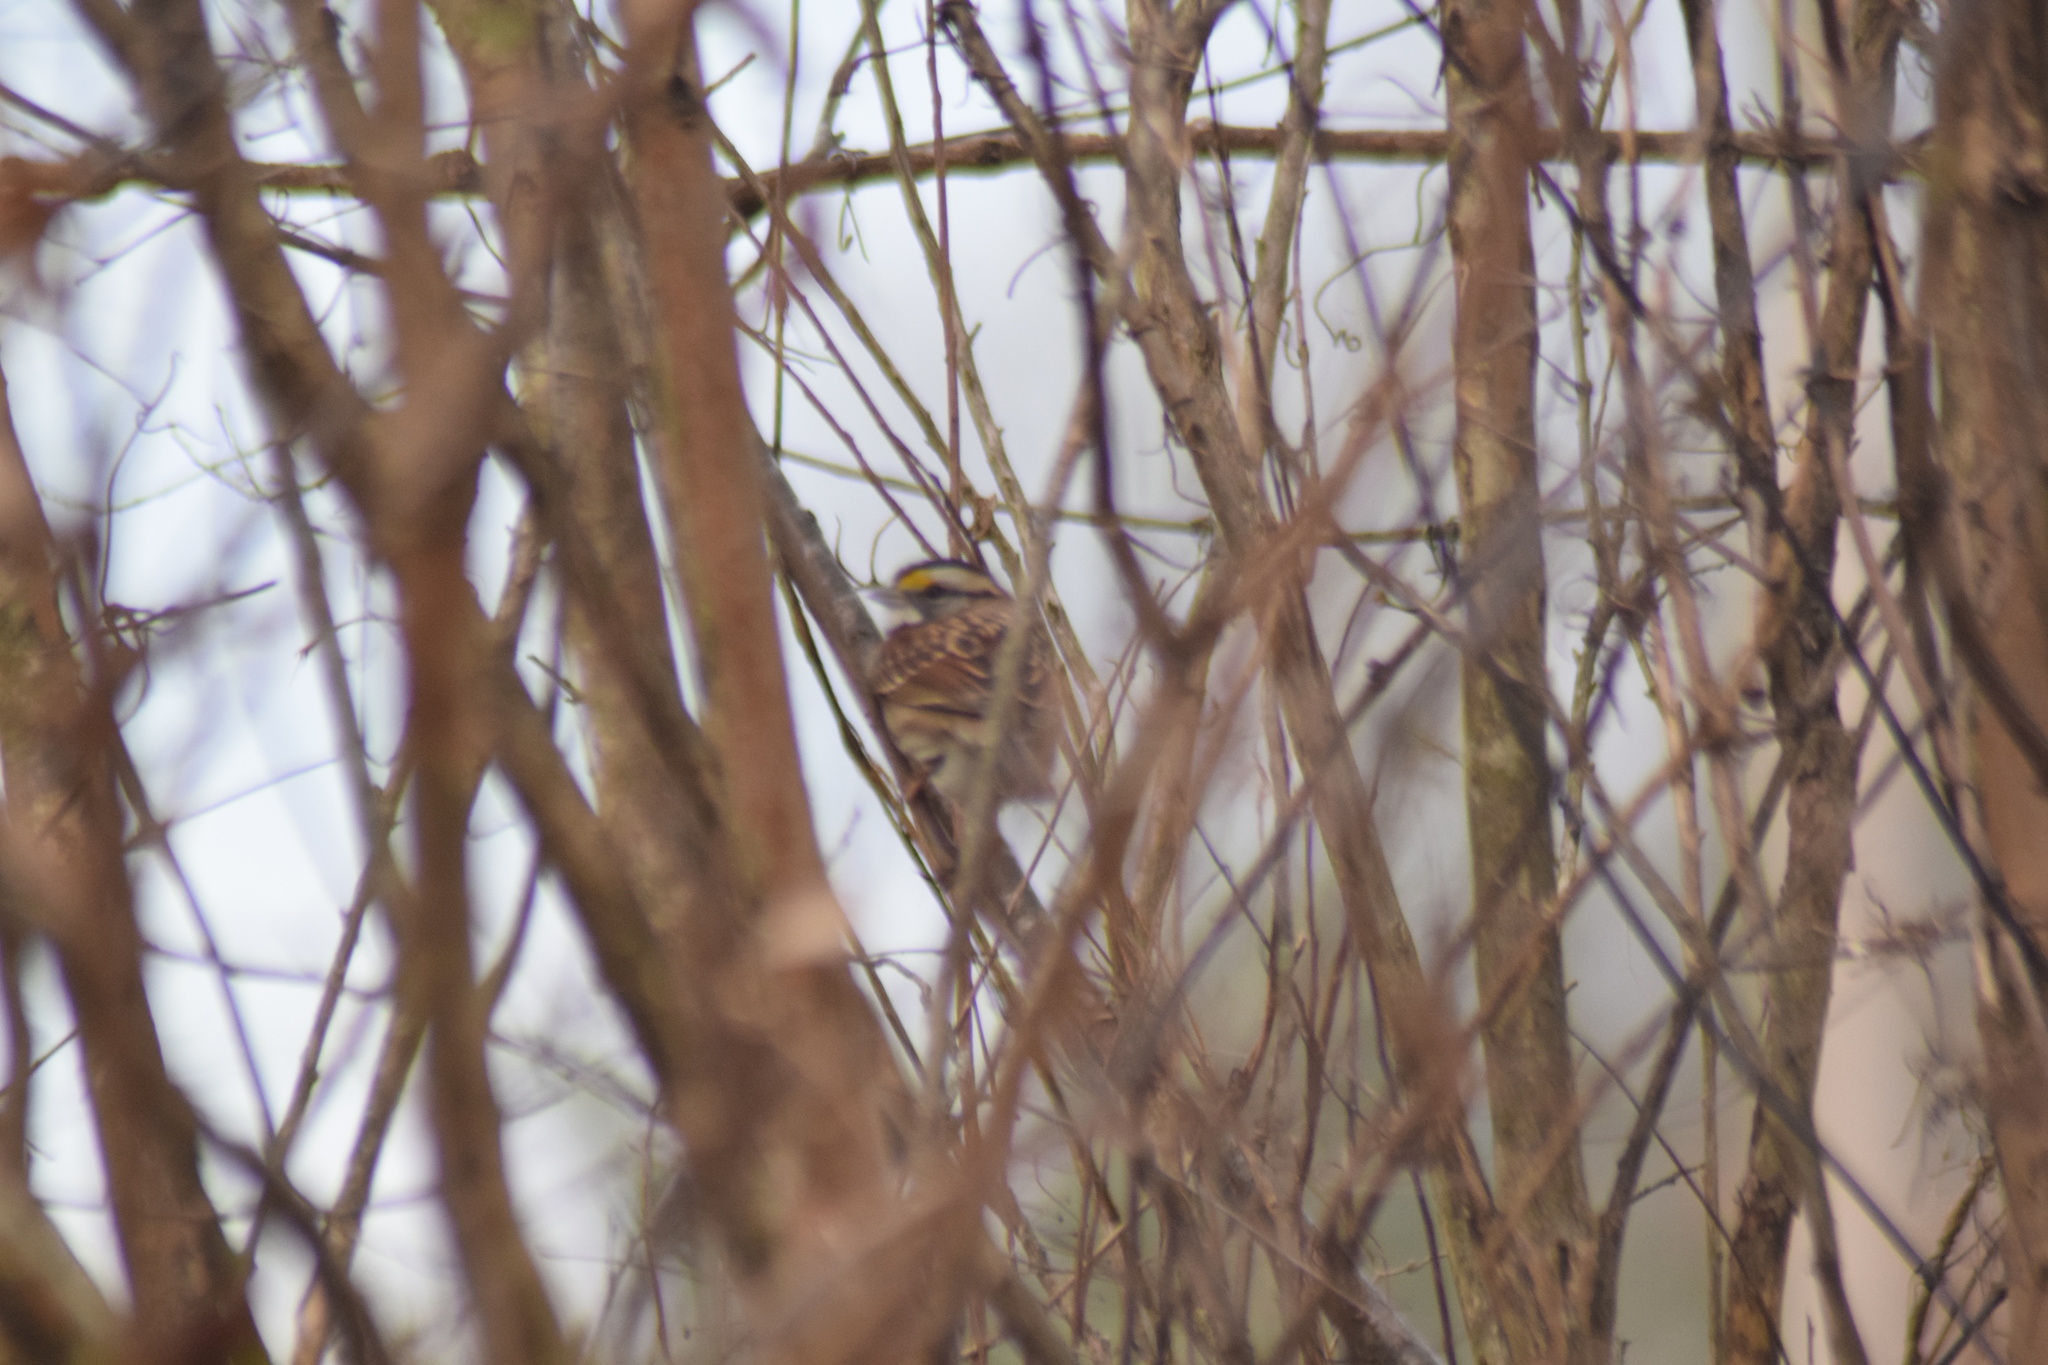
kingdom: Animalia
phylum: Chordata
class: Aves
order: Passeriformes
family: Passerellidae
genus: Zonotrichia
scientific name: Zonotrichia albicollis
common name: White-throated sparrow
